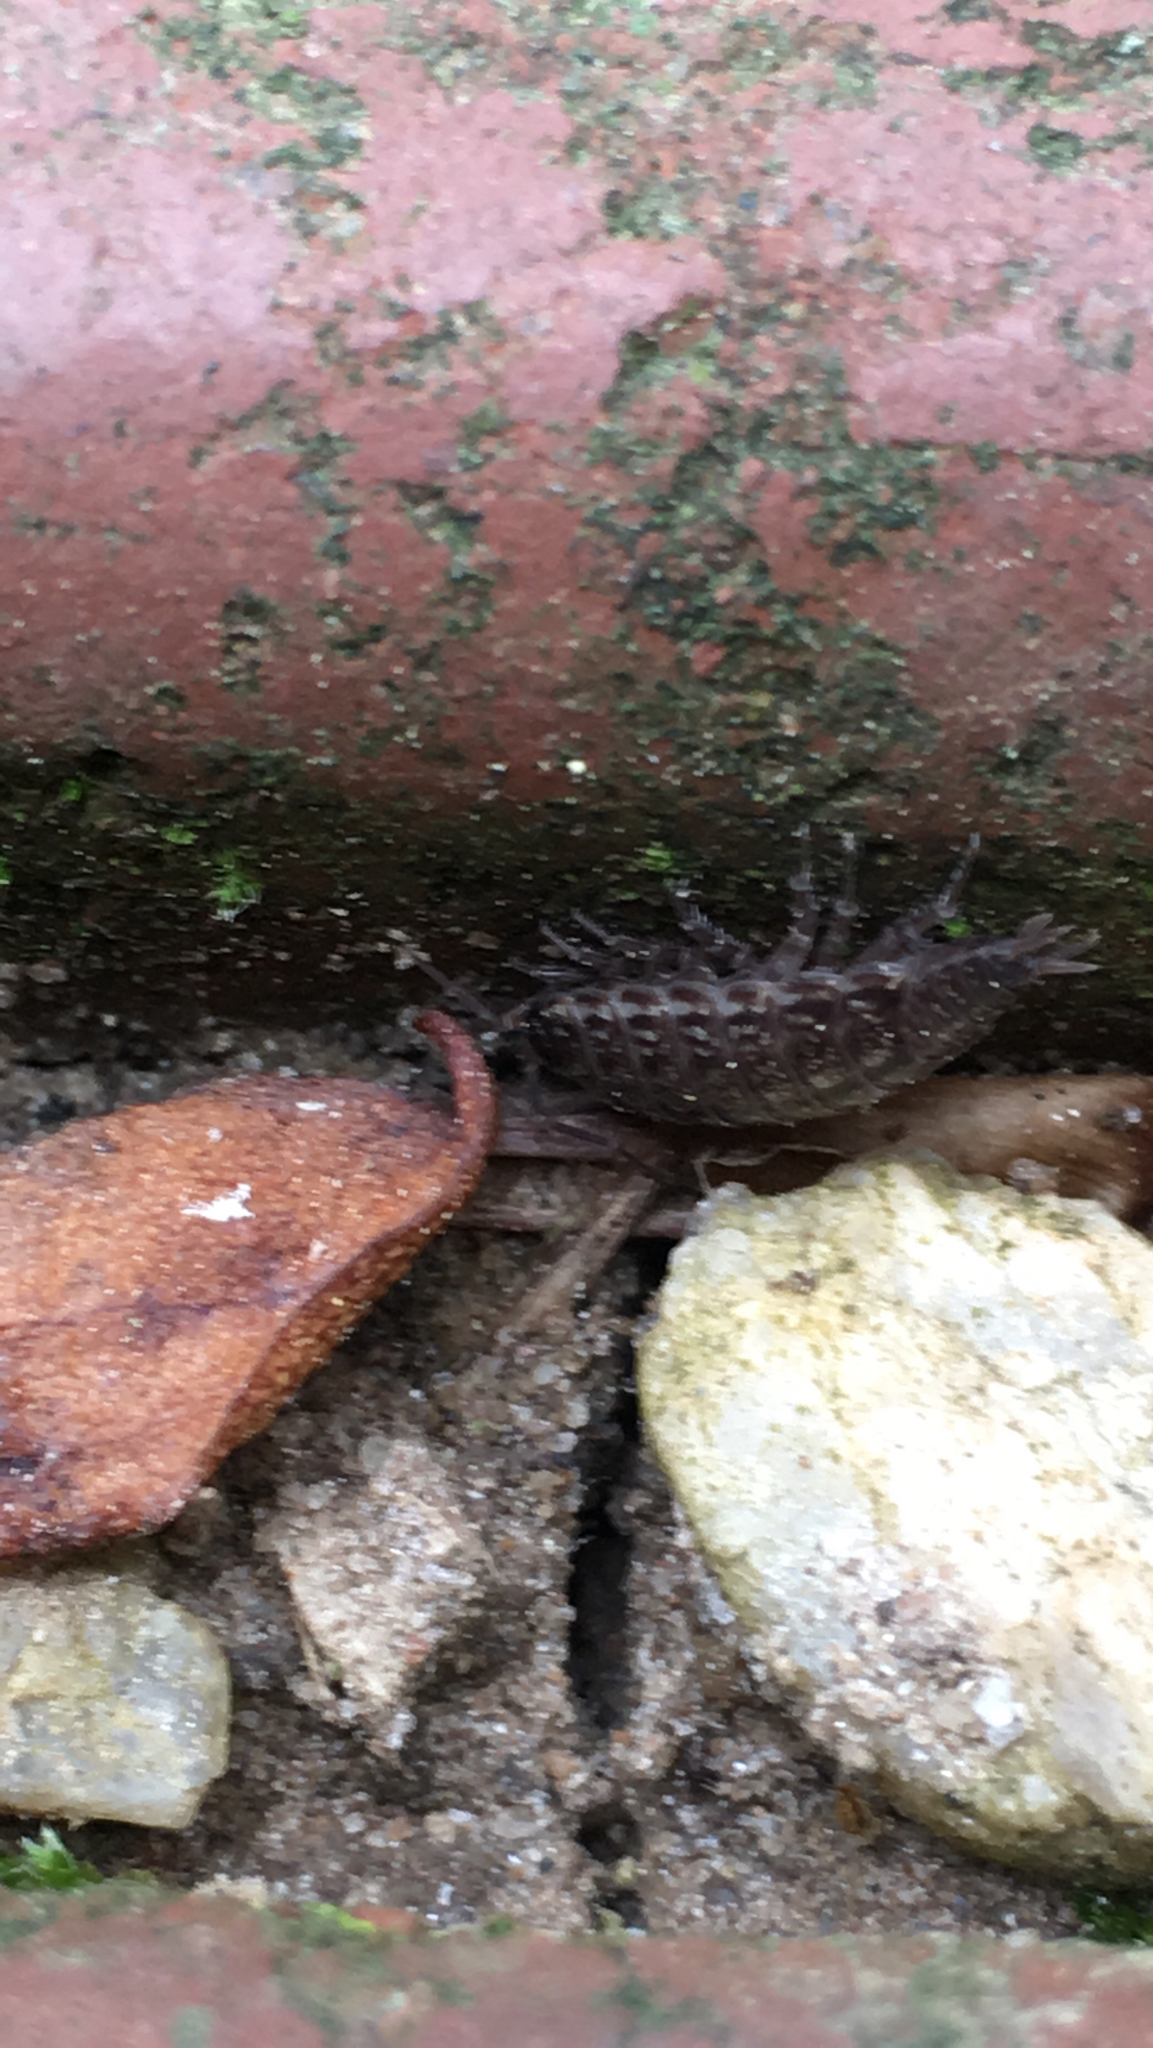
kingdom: Animalia
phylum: Arthropoda
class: Malacostraca
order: Isopoda
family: Philosciidae
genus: Philoscia
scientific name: Philoscia muscorum
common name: Common striped woodlouse
